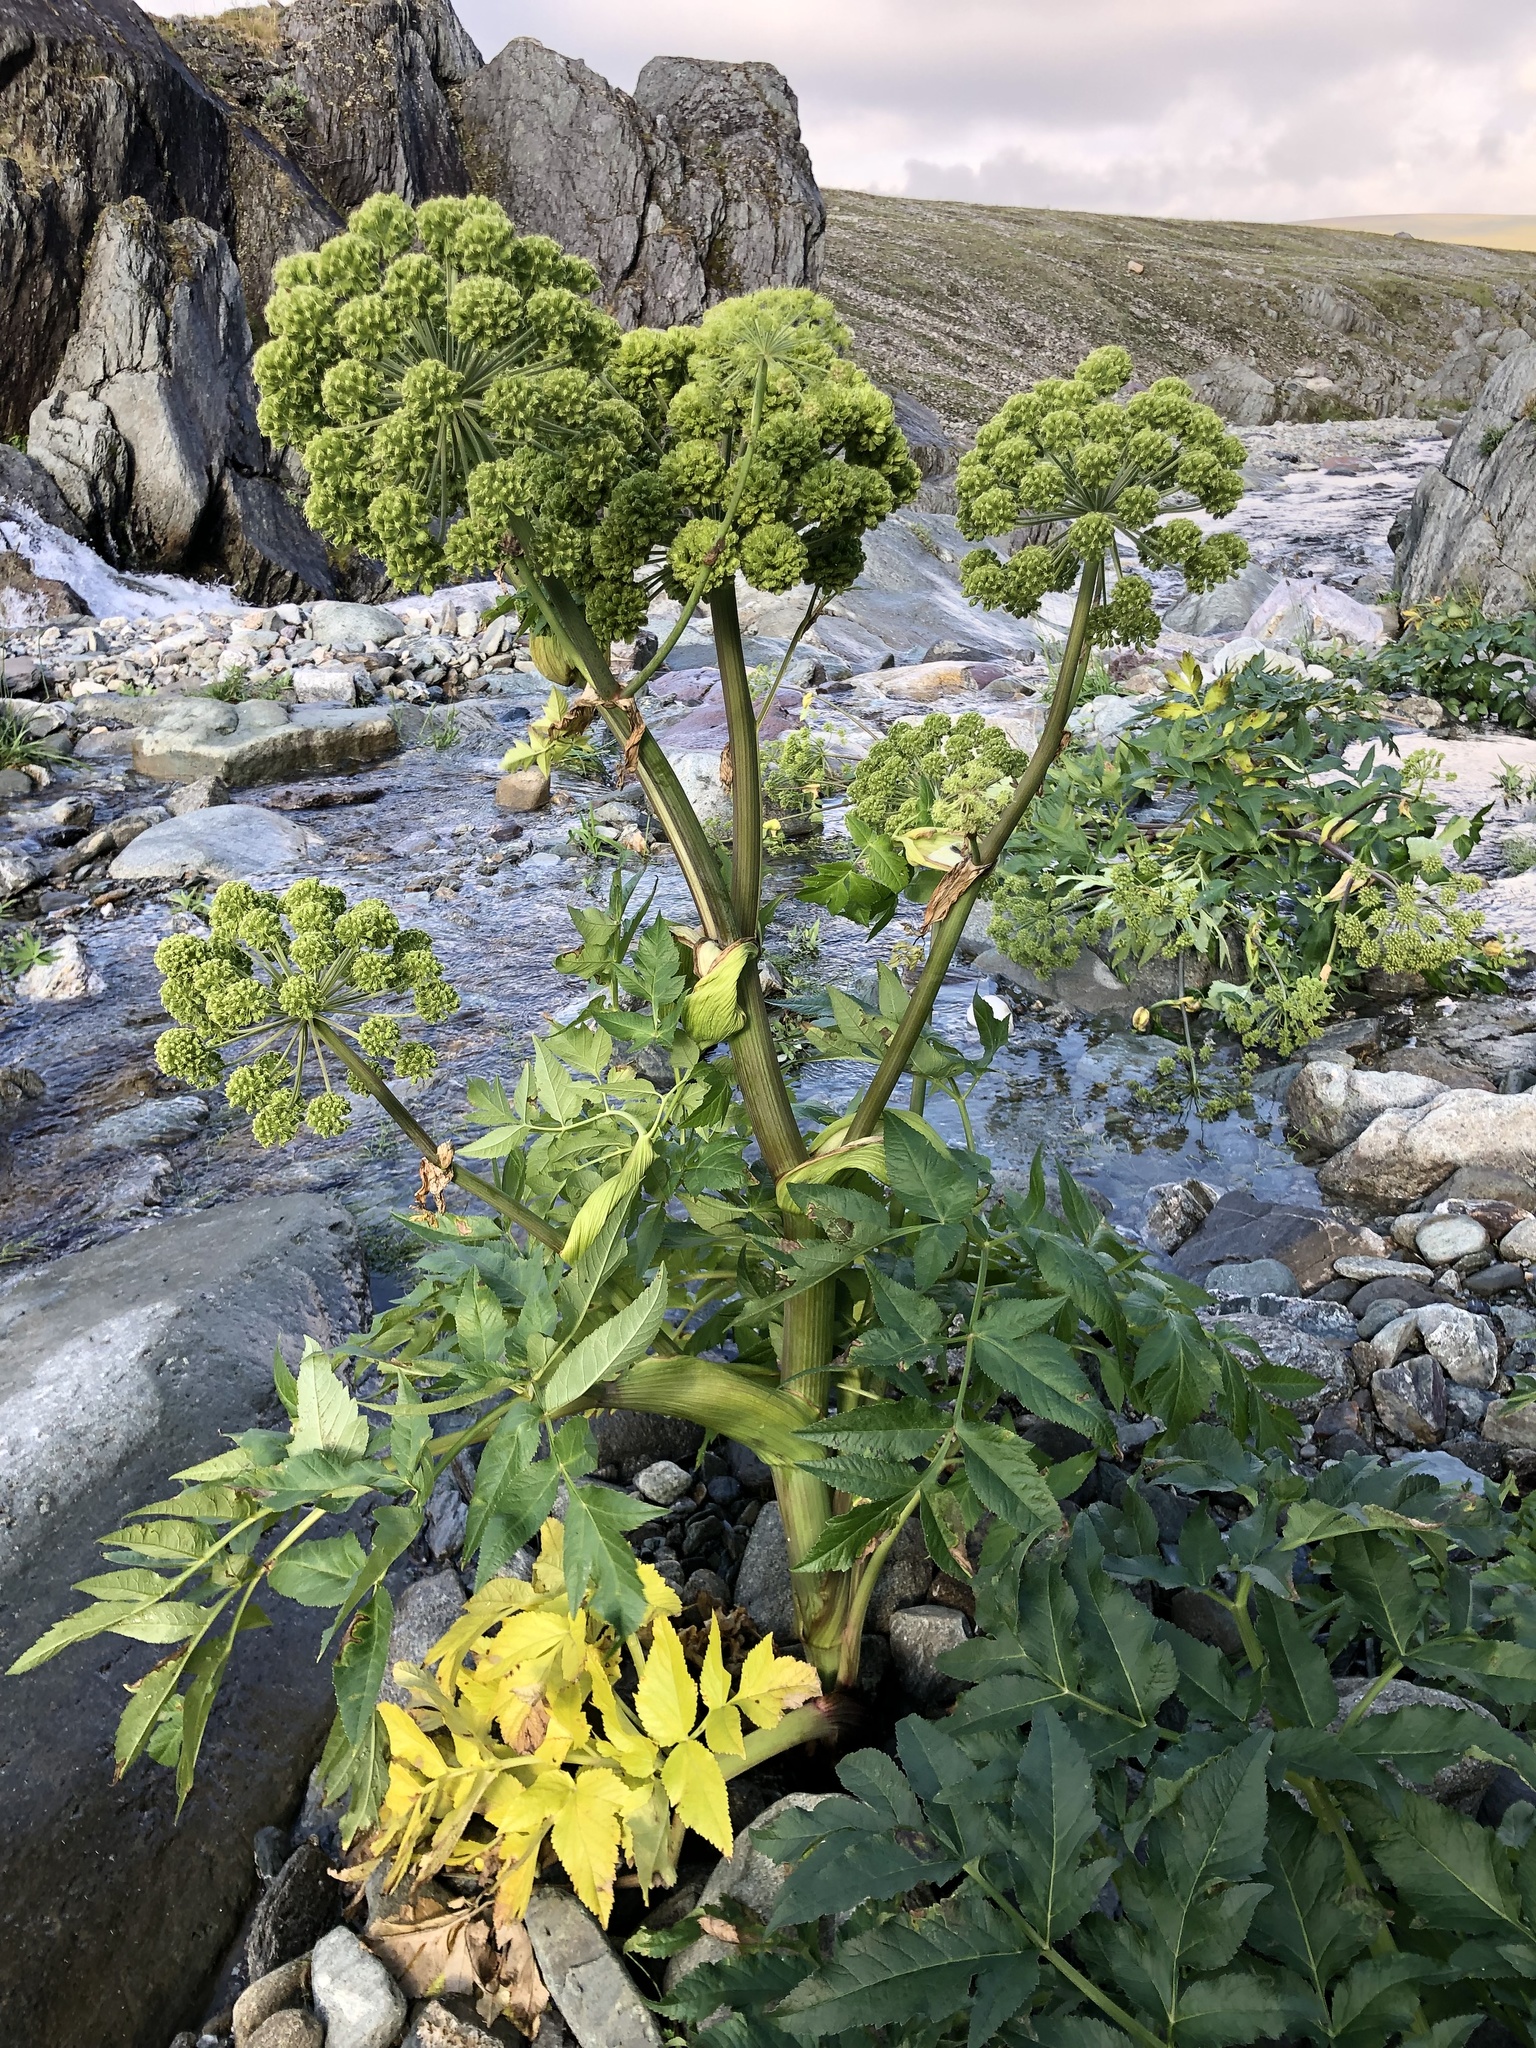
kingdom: Plantae
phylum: Tracheophyta
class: Magnoliopsida
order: Apiales
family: Apiaceae
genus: Angelica
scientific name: Angelica decurrens
